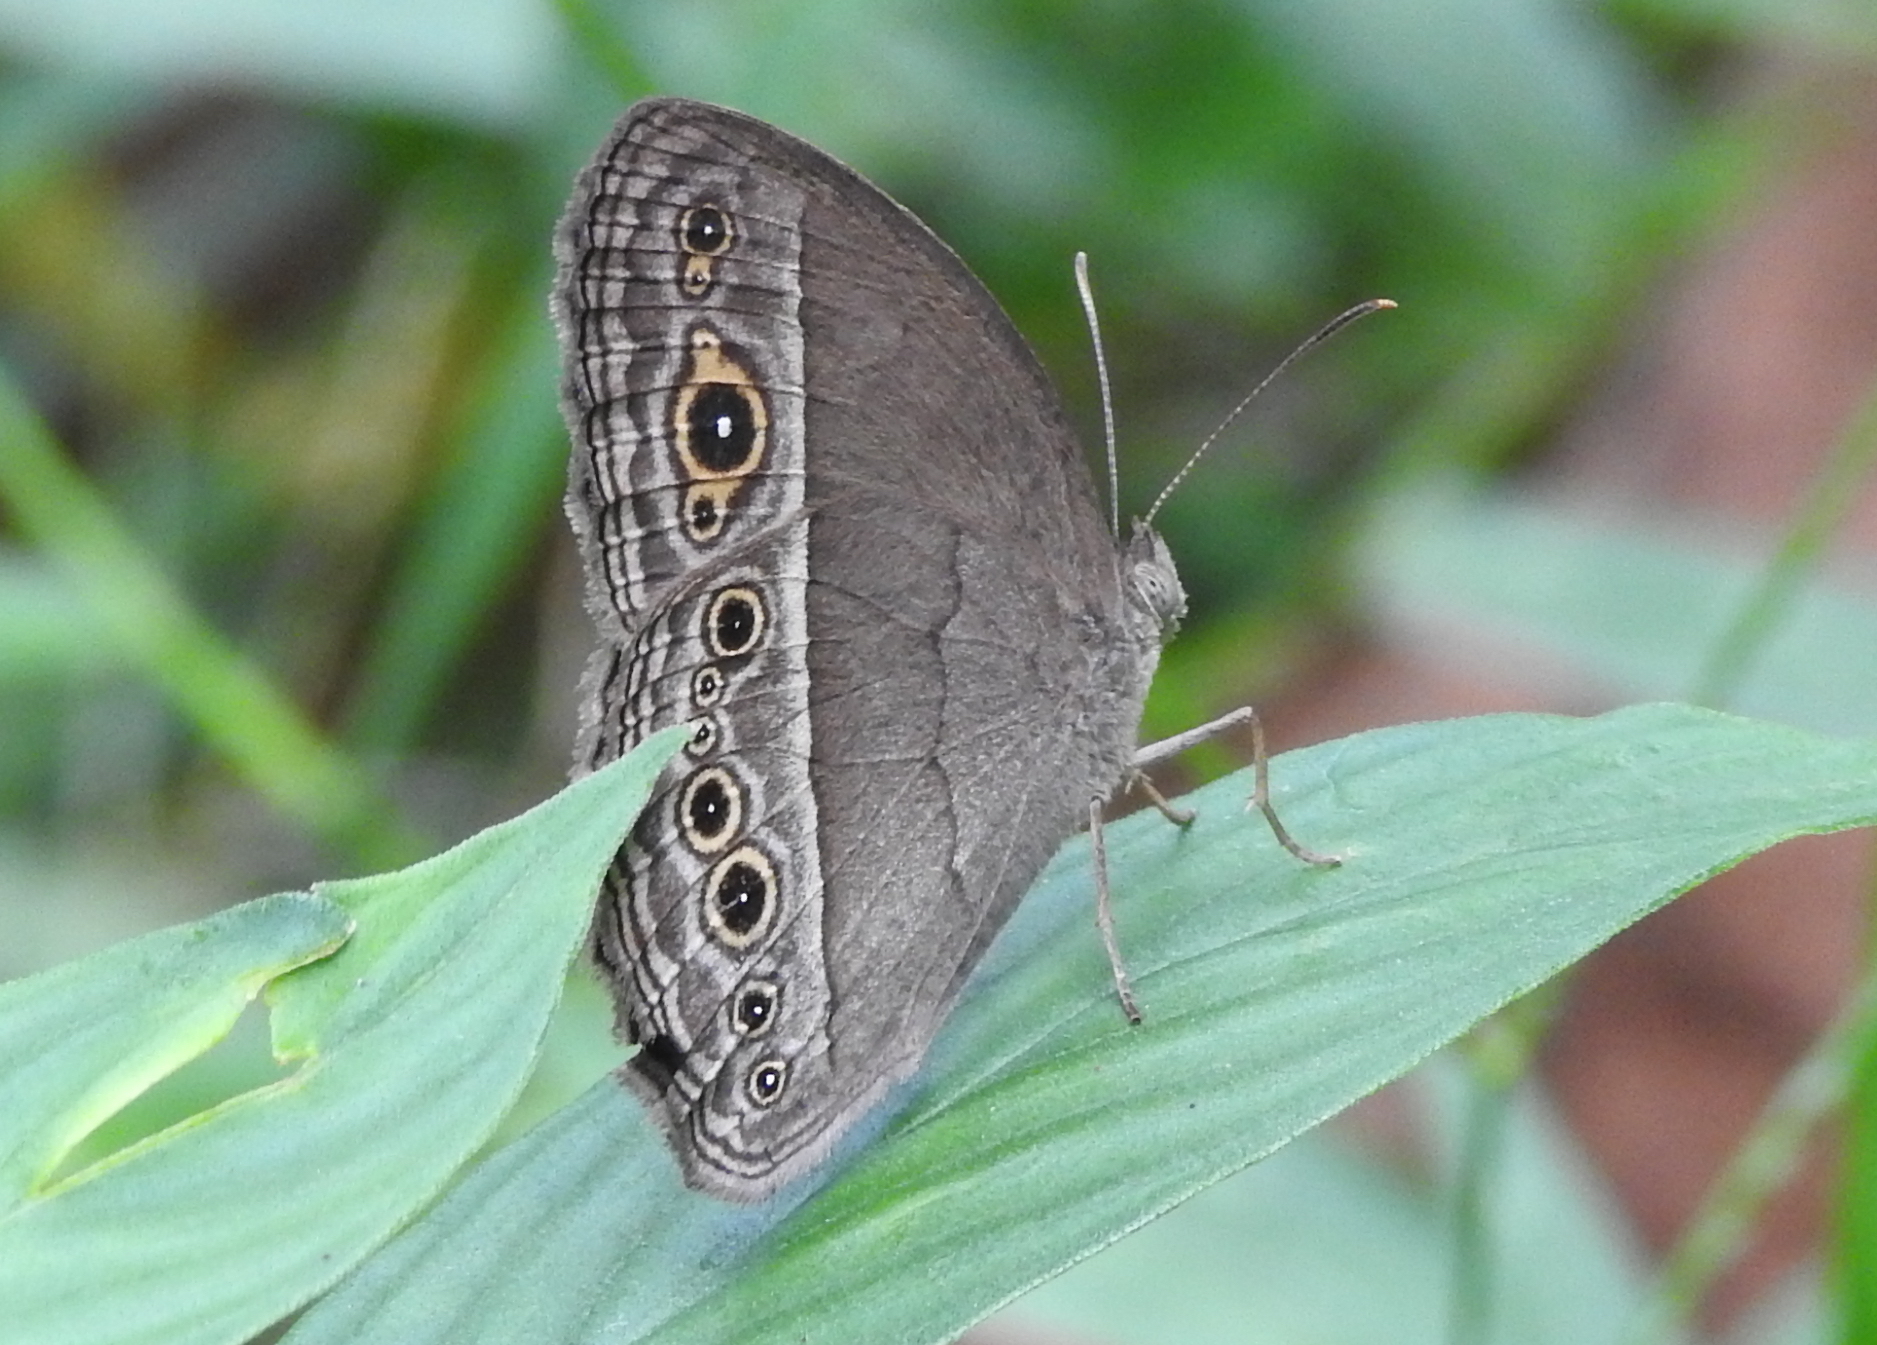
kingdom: Animalia
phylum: Arthropoda
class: Insecta
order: Lepidoptera
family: Nymphalidae
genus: Mycalesis
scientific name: Mycalesis perseoides
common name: Burmese bushbrown
